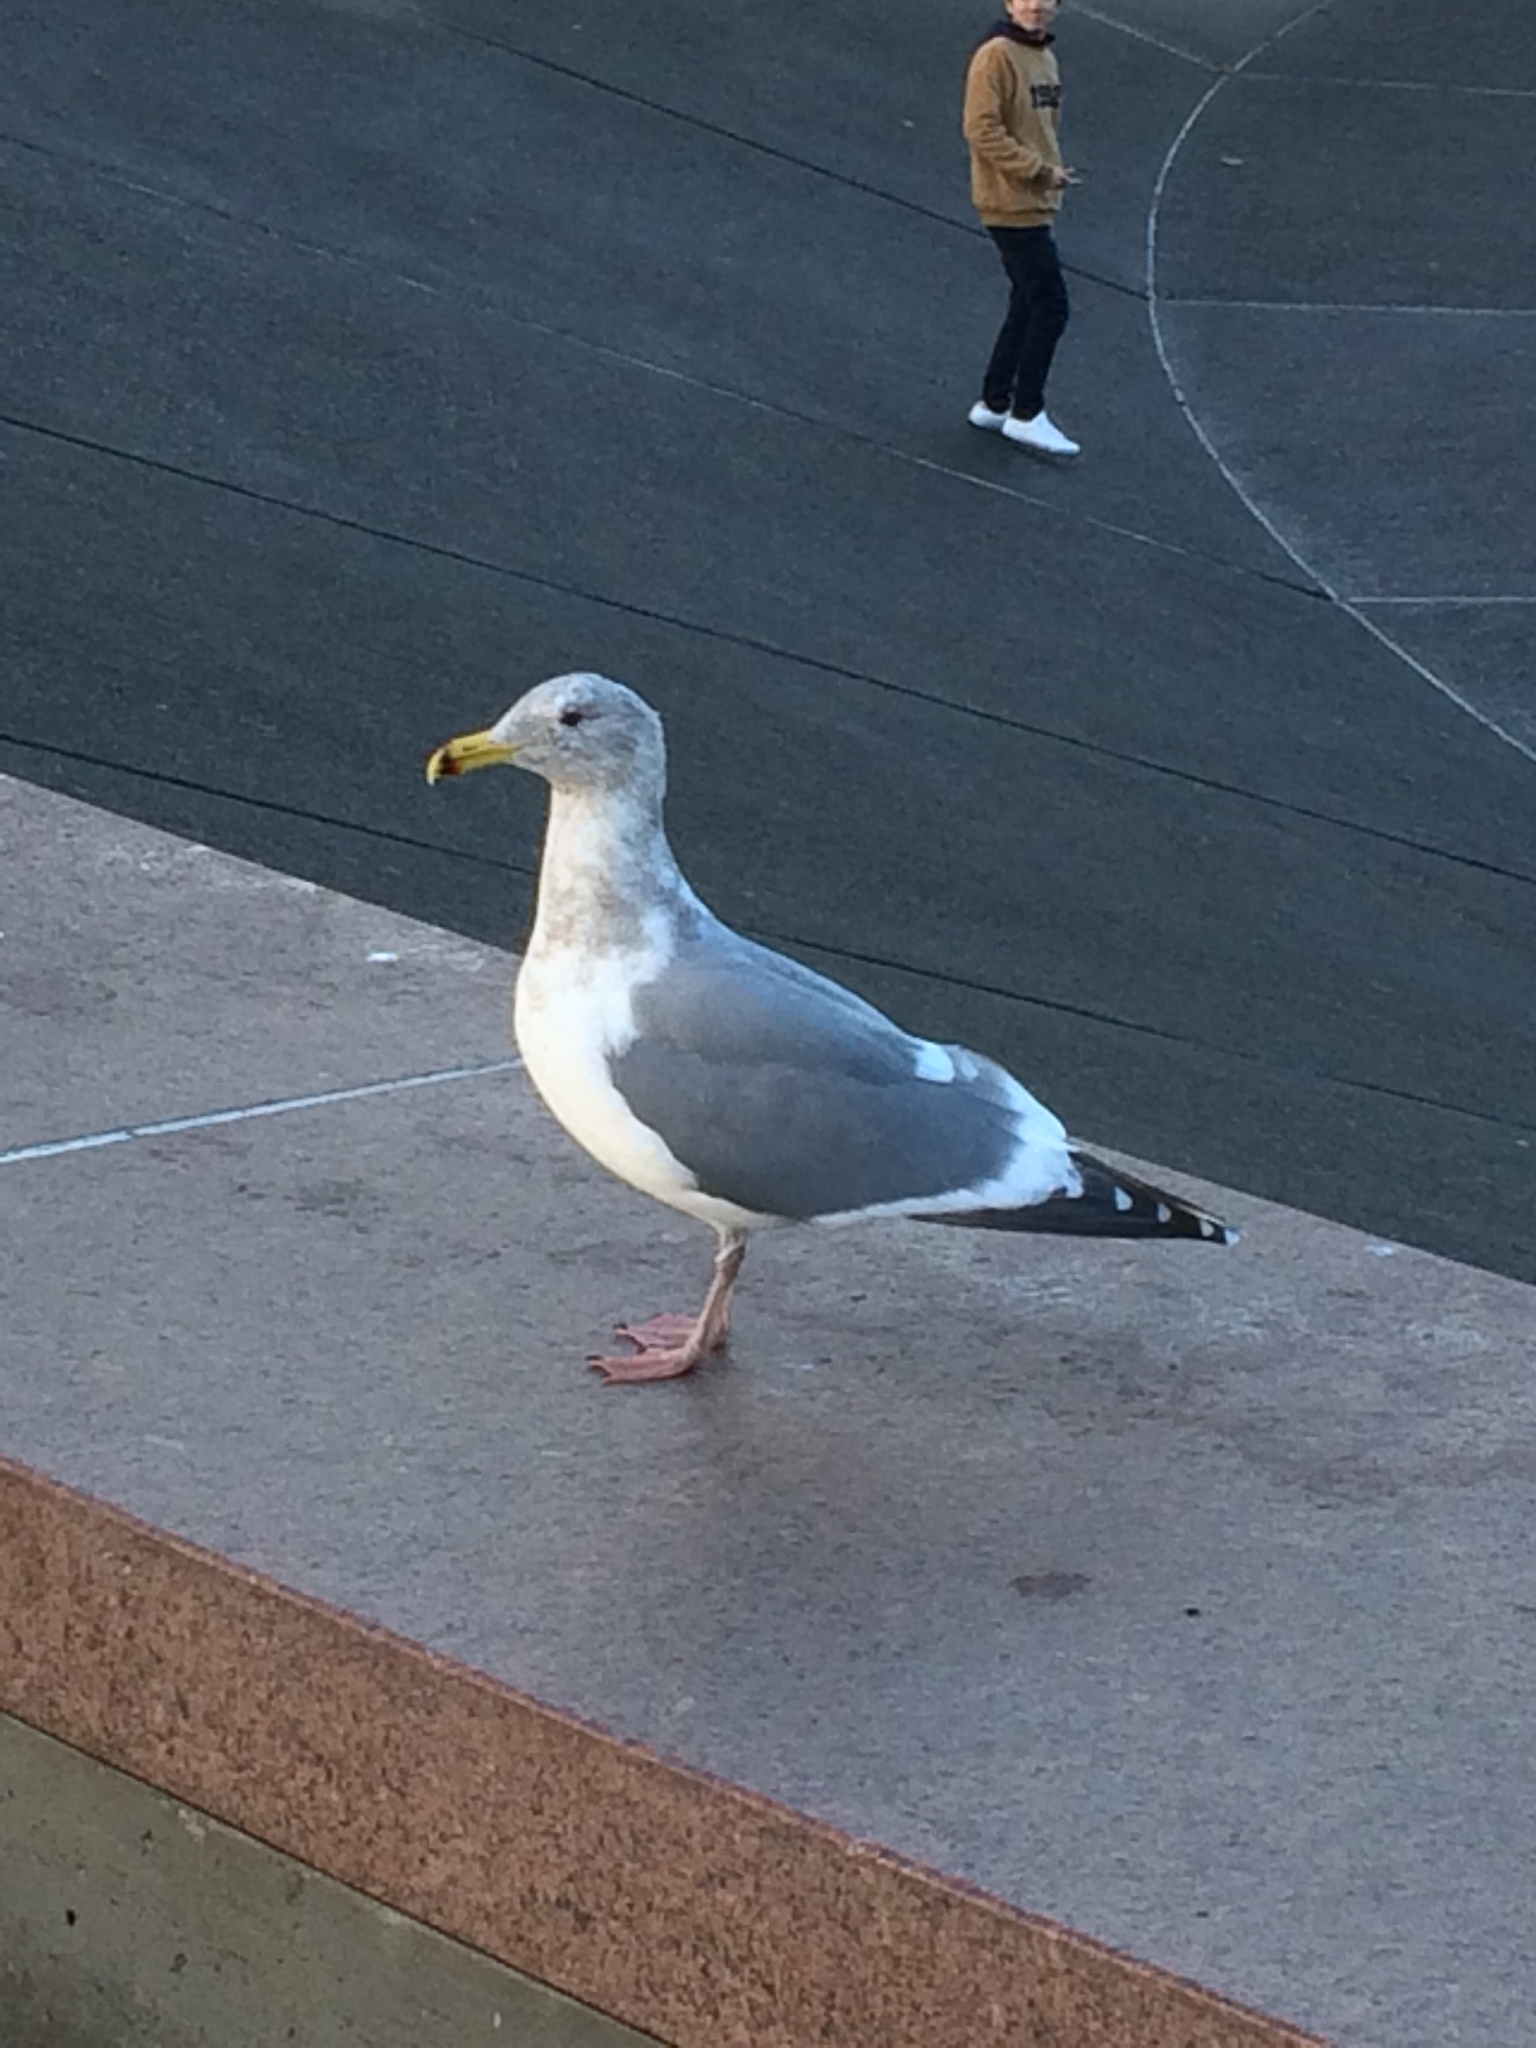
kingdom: Animalia
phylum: Chordata
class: Aves
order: Charadriiformes
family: Laridae
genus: Larus
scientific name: Larus
